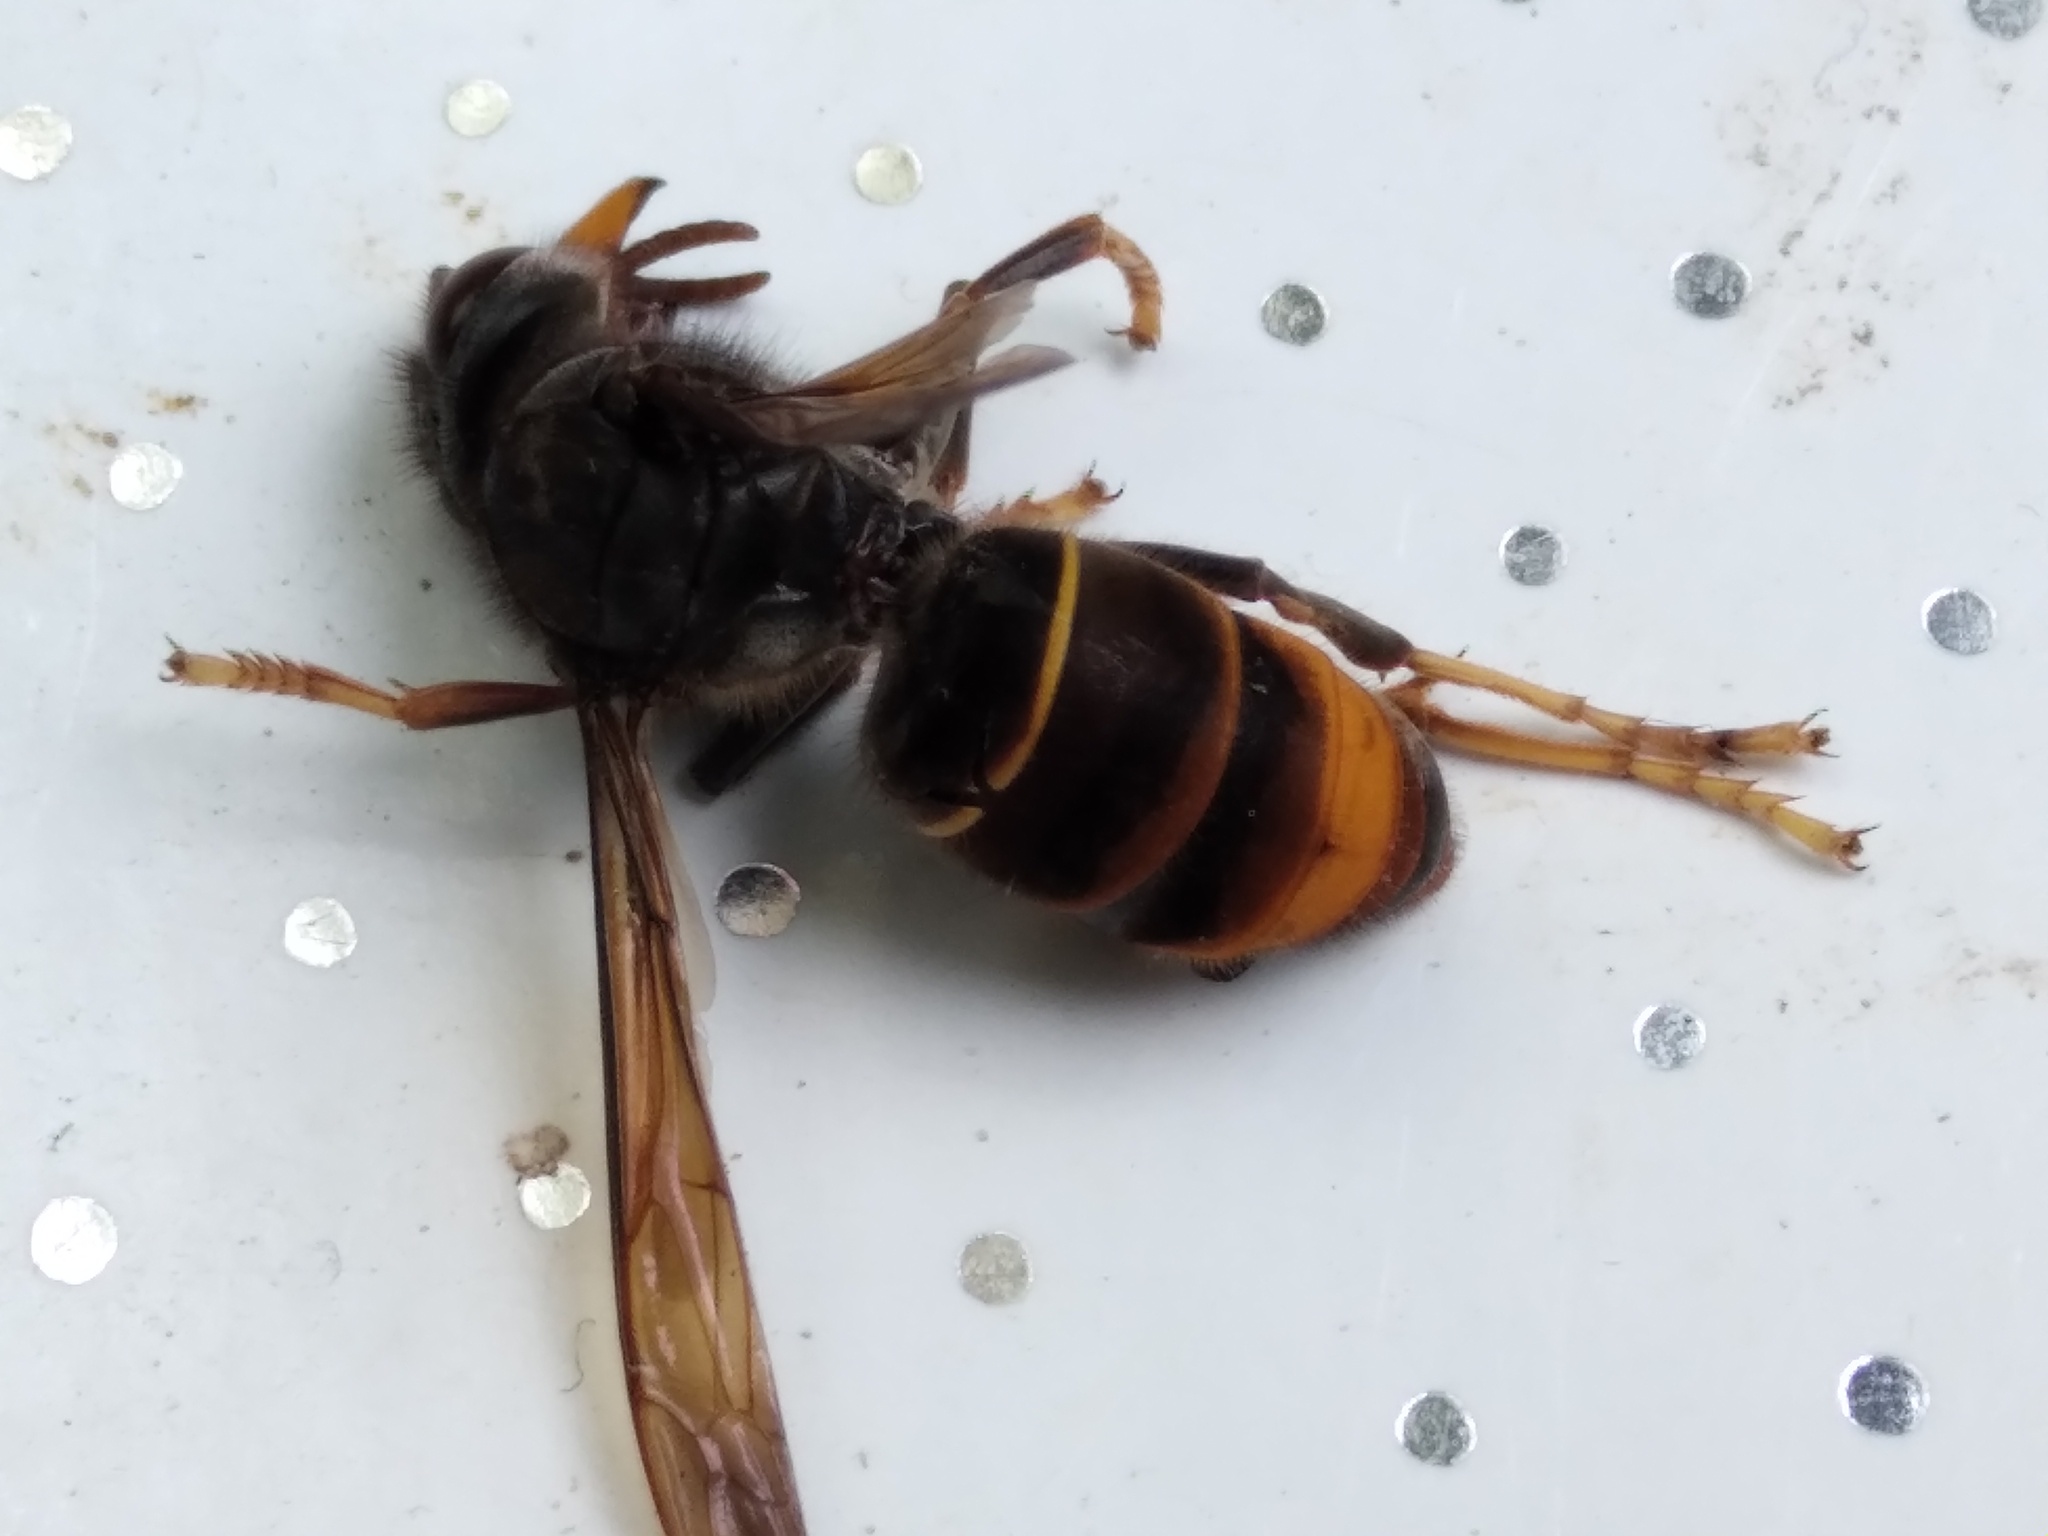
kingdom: Animalia
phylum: Arthropoda
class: Insecta
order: Hymenoptera
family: Vespidae
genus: Vespa
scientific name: Vespa velutina
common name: Asian hornet
